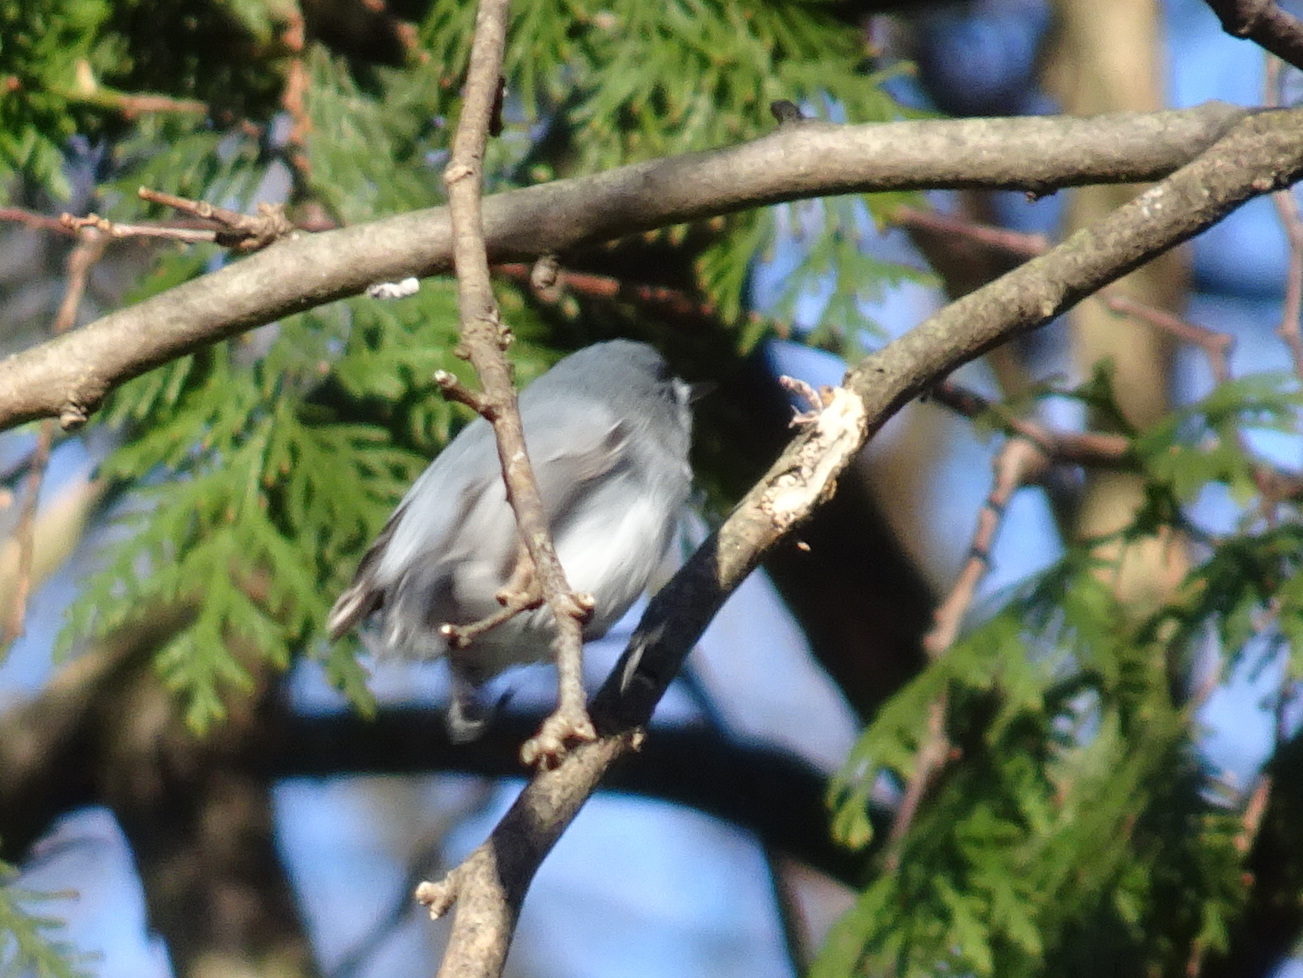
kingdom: Animalia
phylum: Chordata
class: Aves
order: Passeriformes
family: Polioptilidae
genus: Polioptila
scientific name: Polioptila caerulea
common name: Blue-gray gnatcatcher
